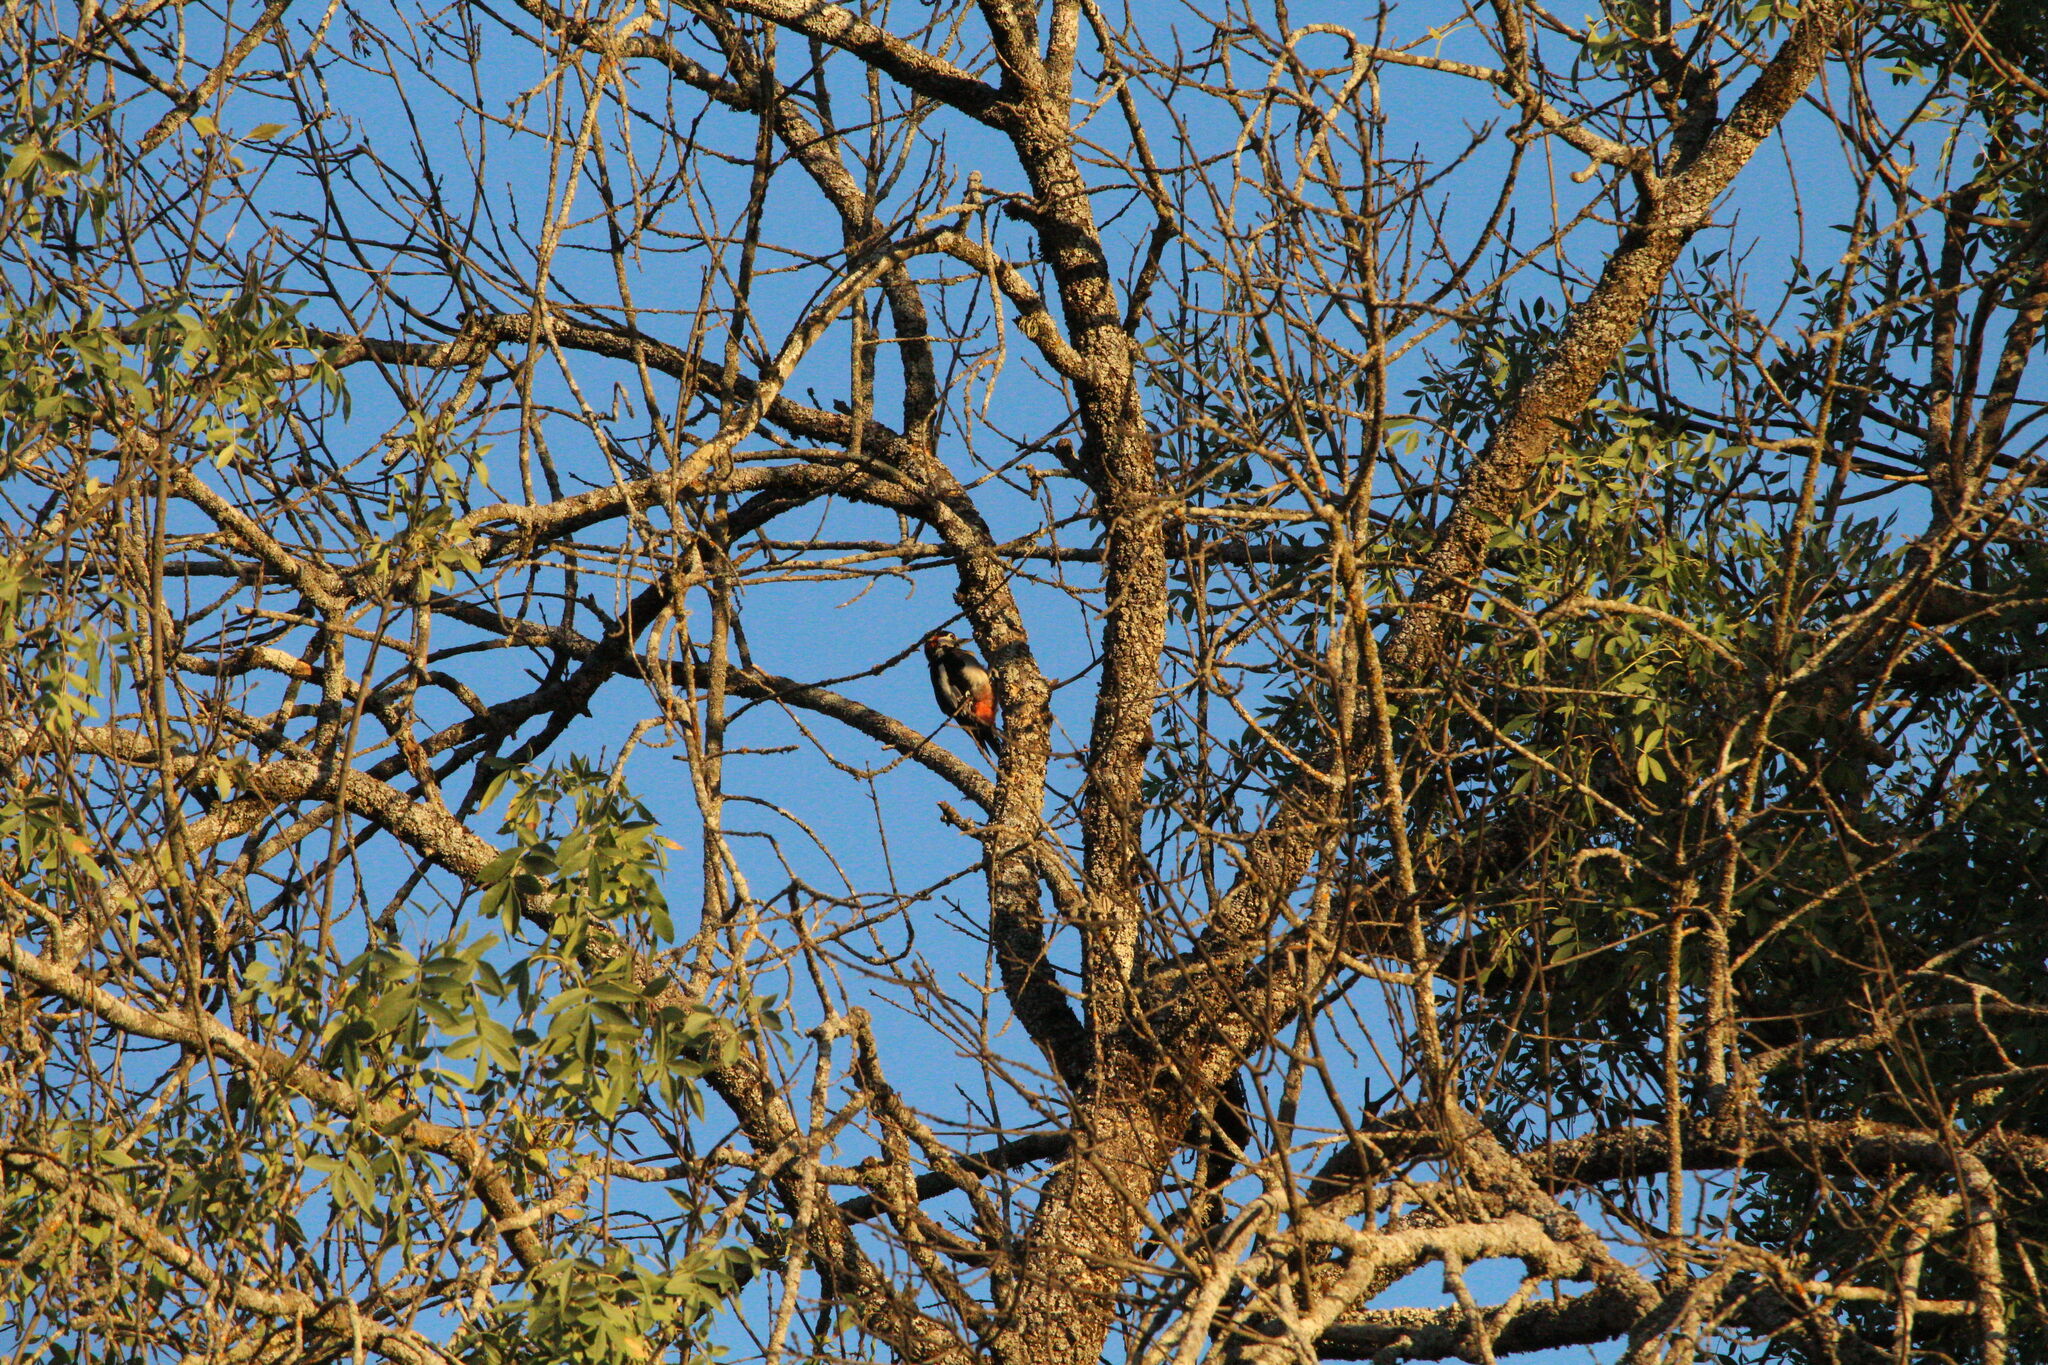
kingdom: Animalia
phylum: Chordata
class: Aves
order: Piciformes
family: Picidae
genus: Dendrocopos
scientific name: Dendrocopos major
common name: Great spotted woodpecker
